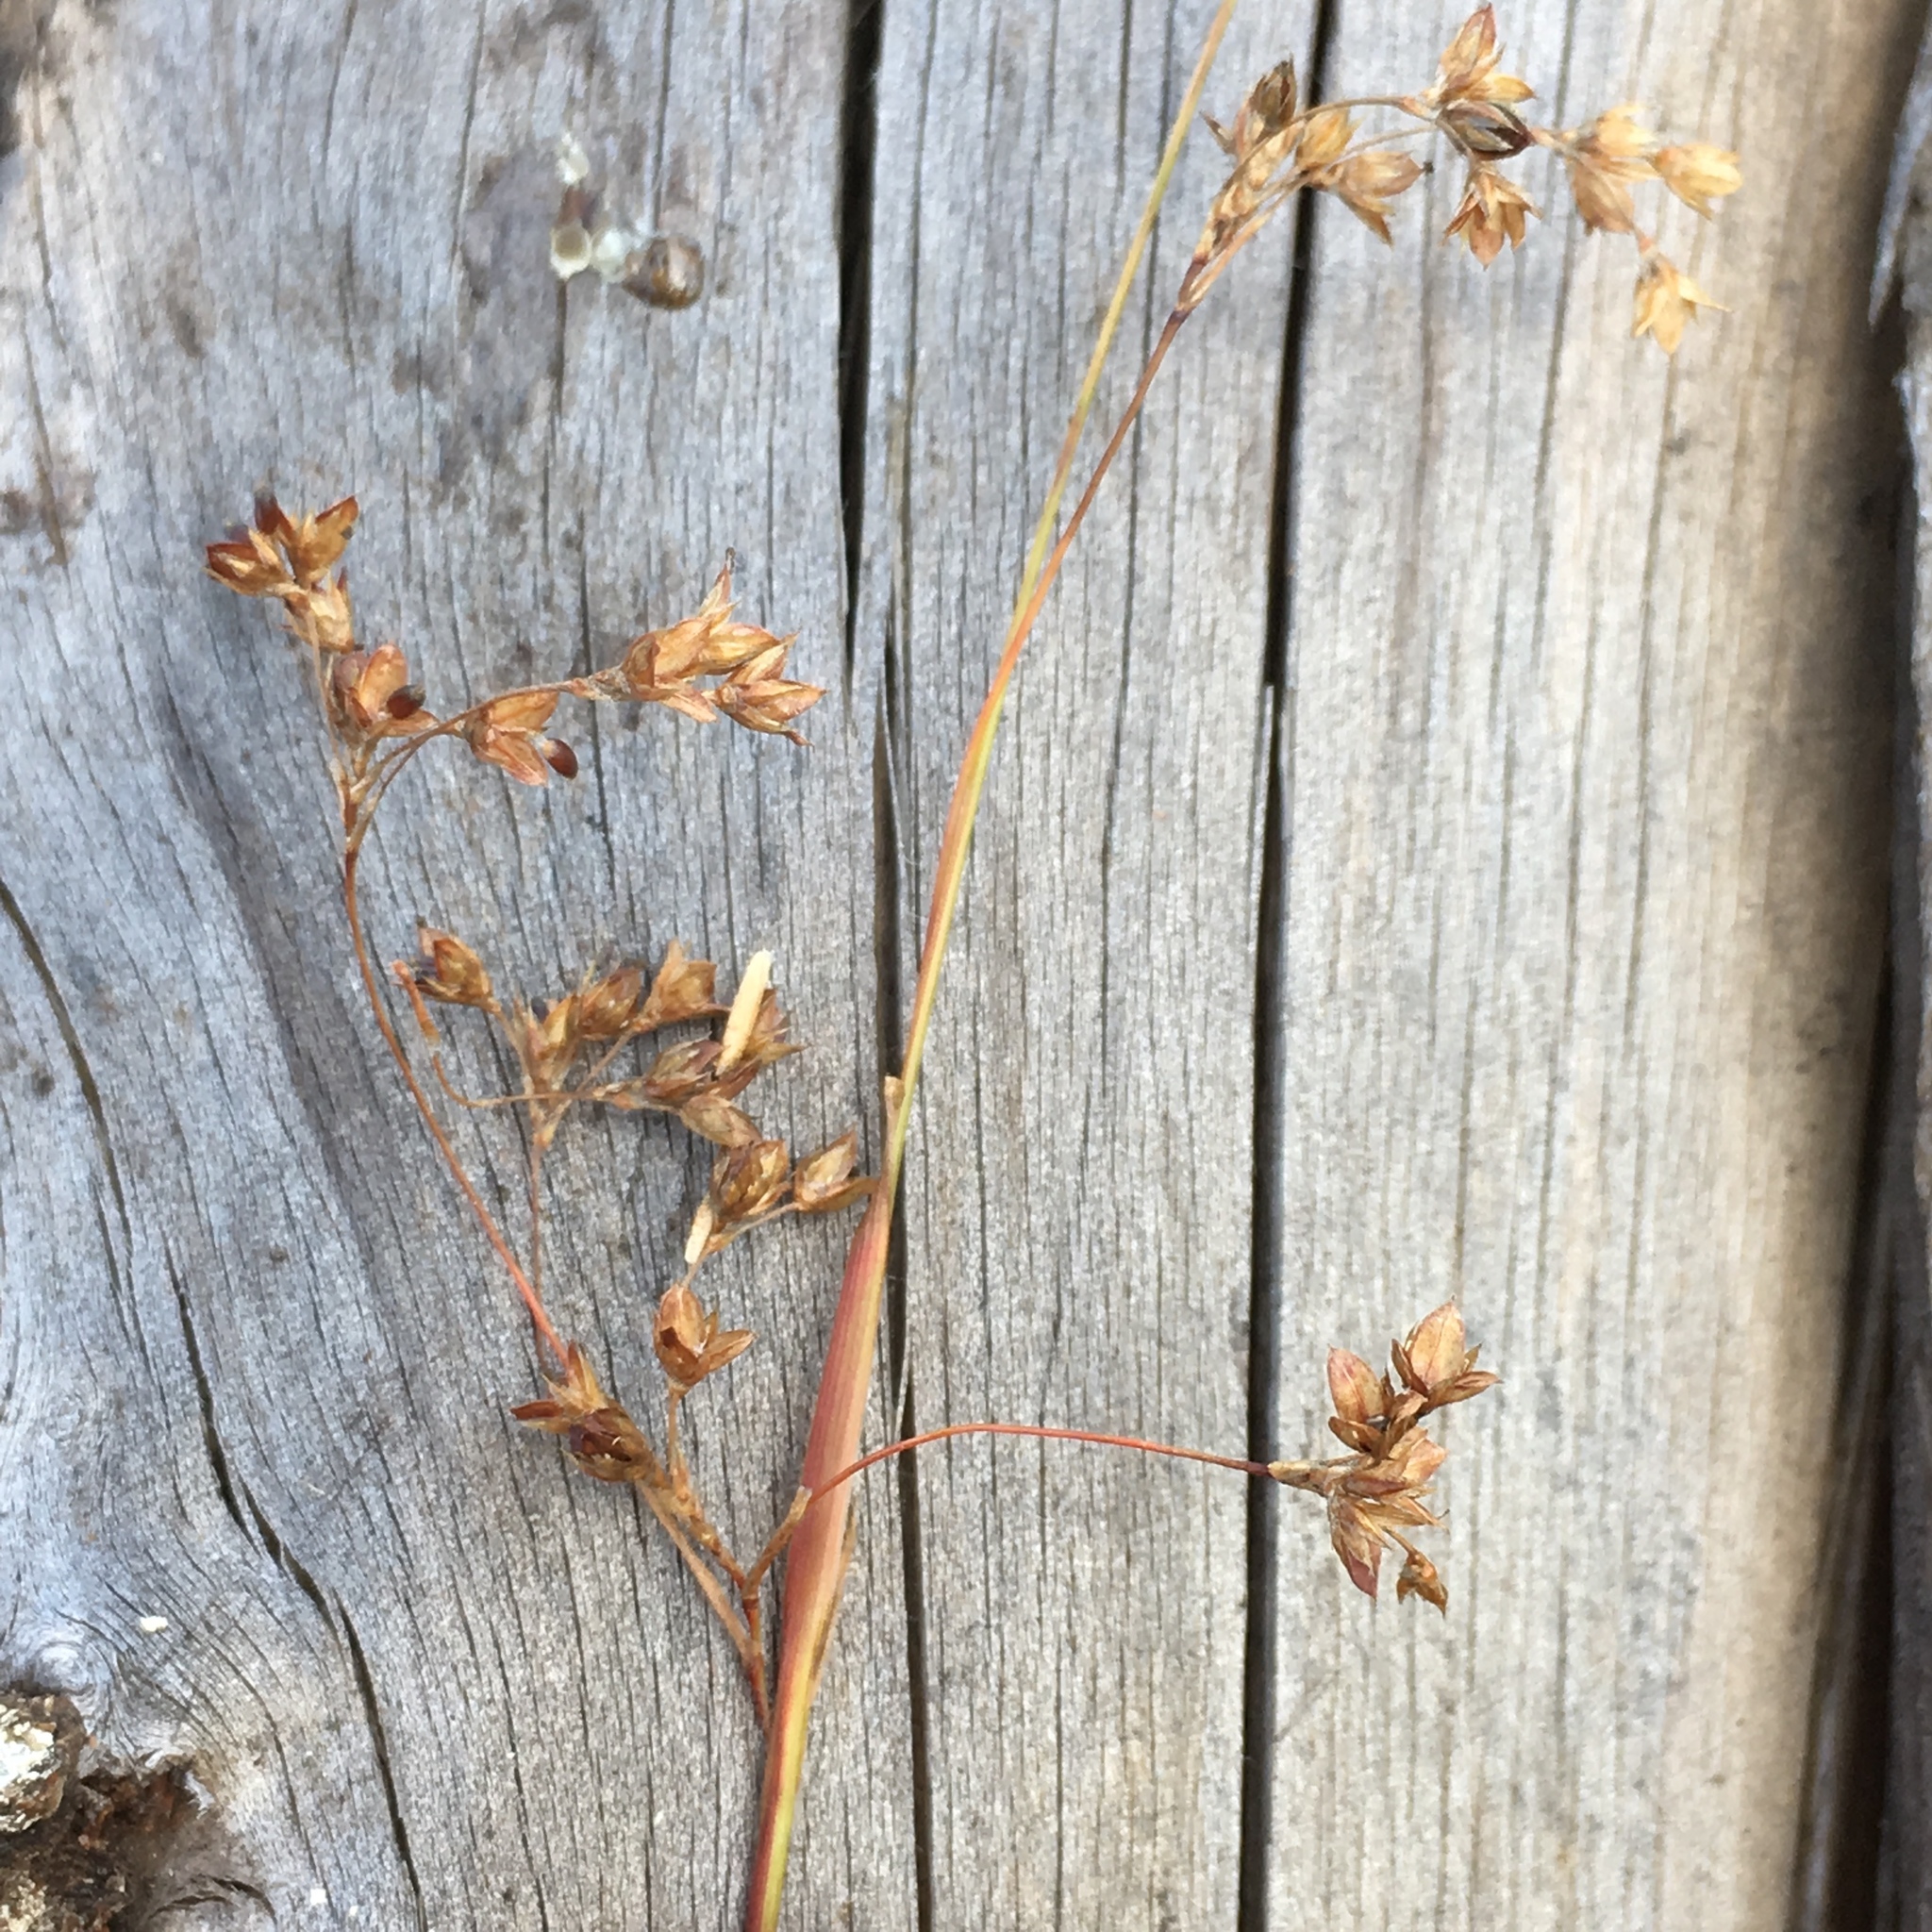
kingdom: Plantae
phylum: Tracheophyta
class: Liliopsida
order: Poales
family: Juncaceae
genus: Luzula
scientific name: Luzula parviflora
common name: Millet woodrush
